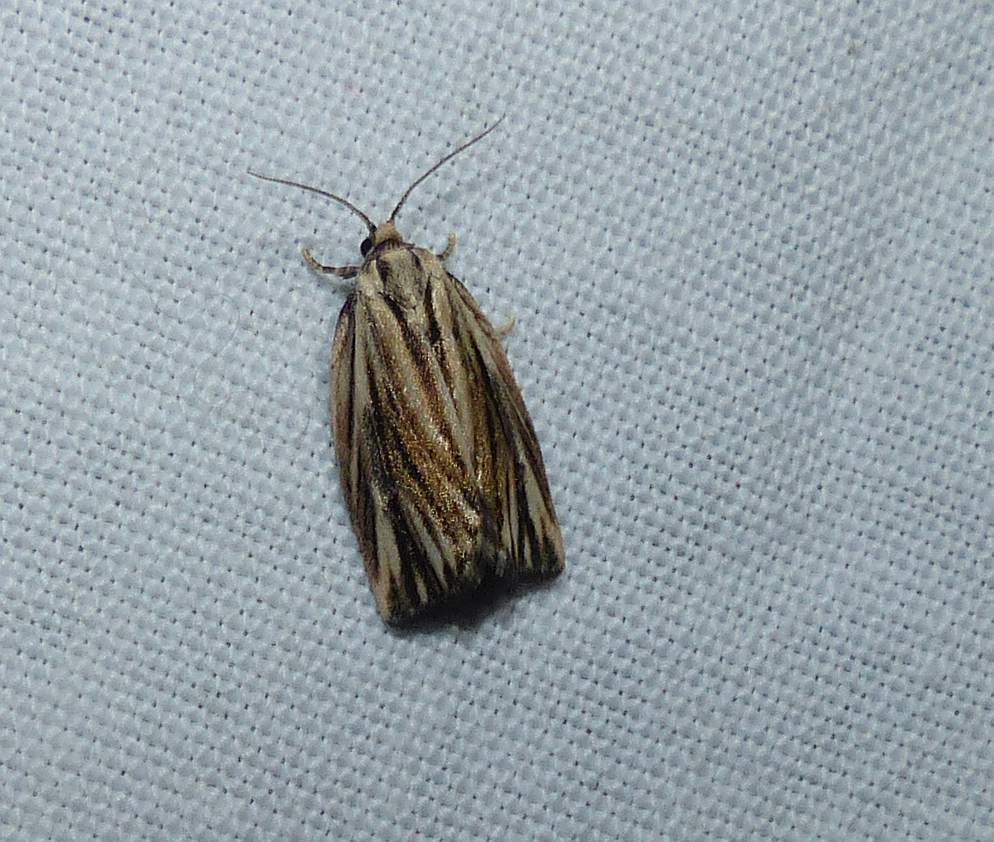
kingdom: Animalia
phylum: Arthropoda
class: Insecta
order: Lepidoptera
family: Tortricidae
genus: Archips
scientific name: Archips strianus
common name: Striated tortrix moth
